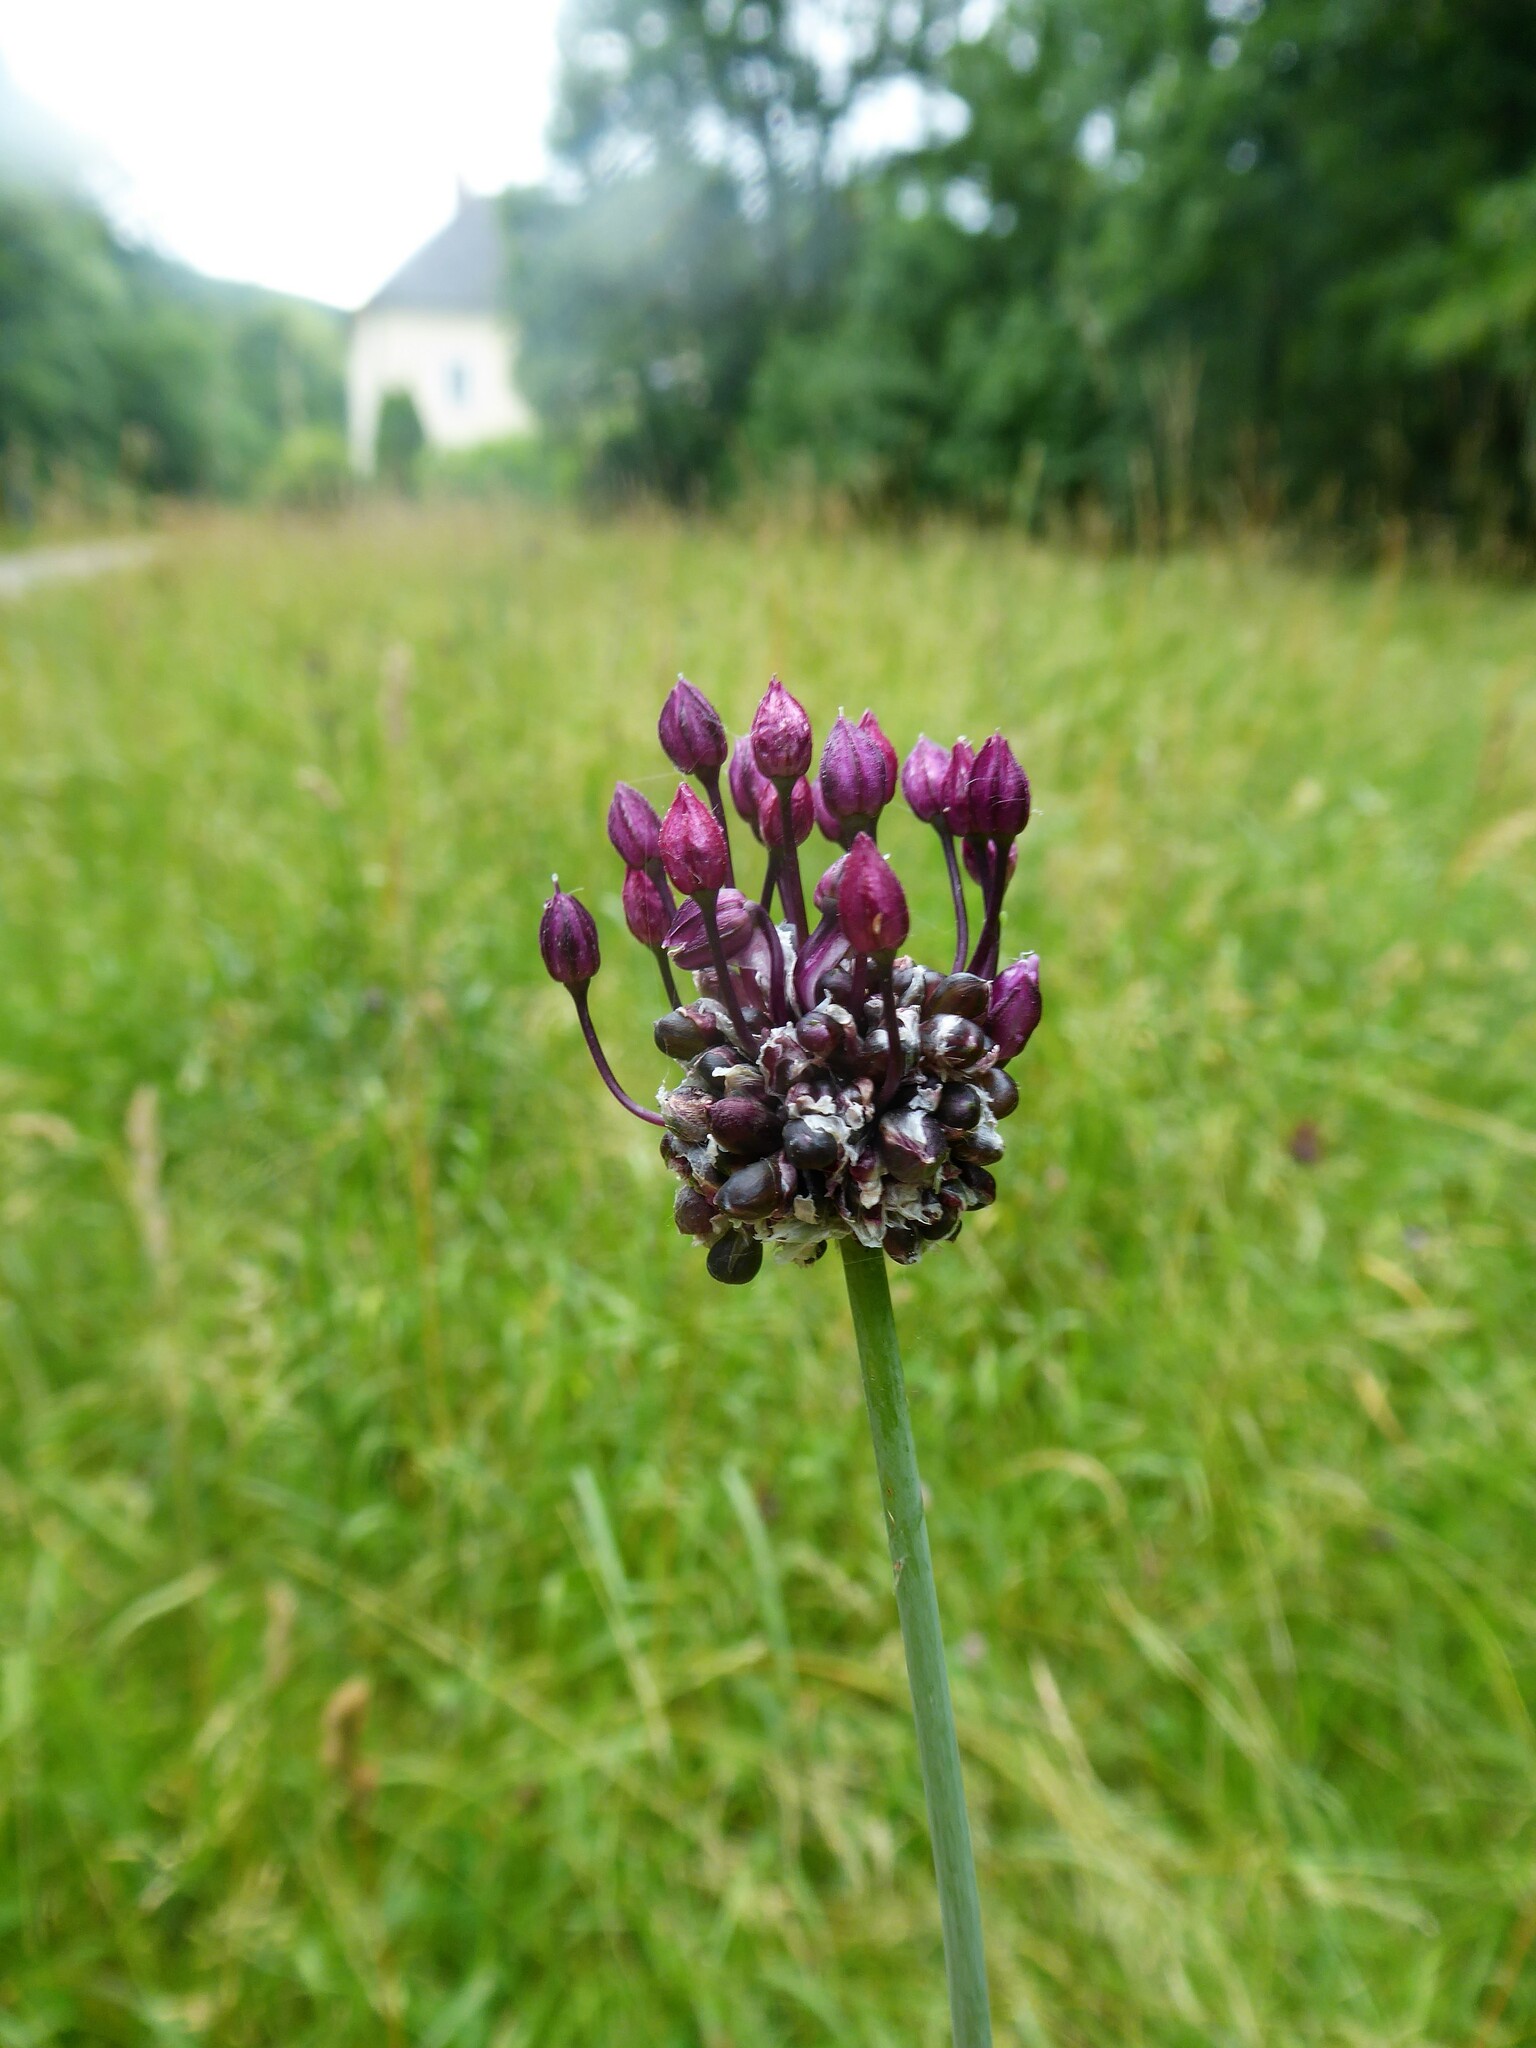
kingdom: Plantae
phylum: Tracheophyta
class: Liliopsida
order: Asparagales
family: Amaryllidaceae
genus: Allium
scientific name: Allium scorodoprasum
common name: Sand leek
